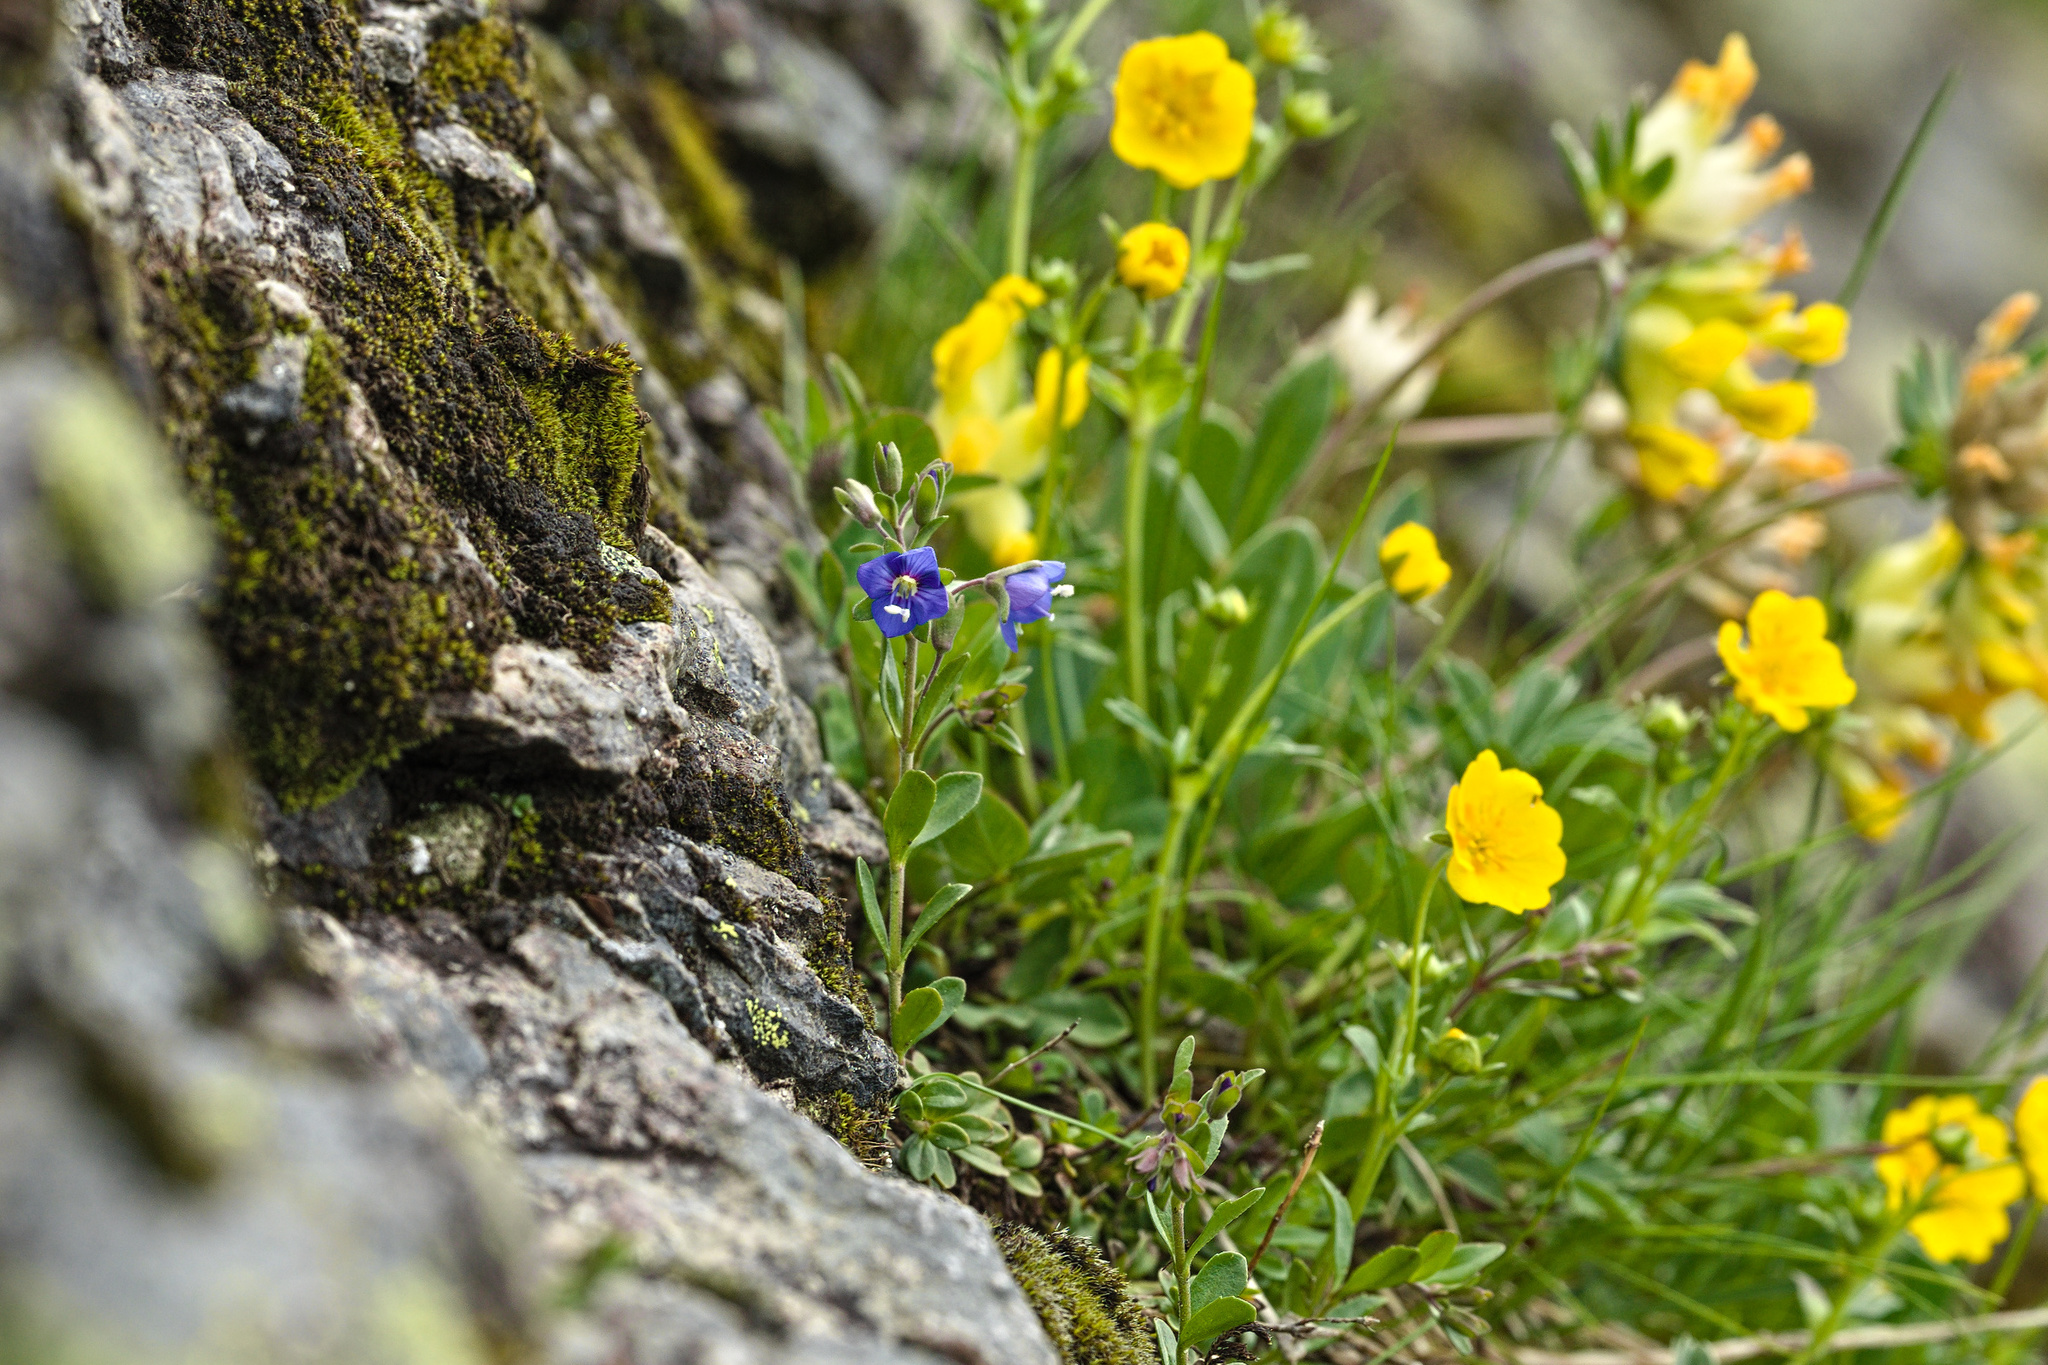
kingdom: Plantae
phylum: Tracheophyta
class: Magnoliopsida
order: Lamiales
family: Plantaginaceae
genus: Veronica
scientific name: Veronica fruticans
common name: Rock speedwell
